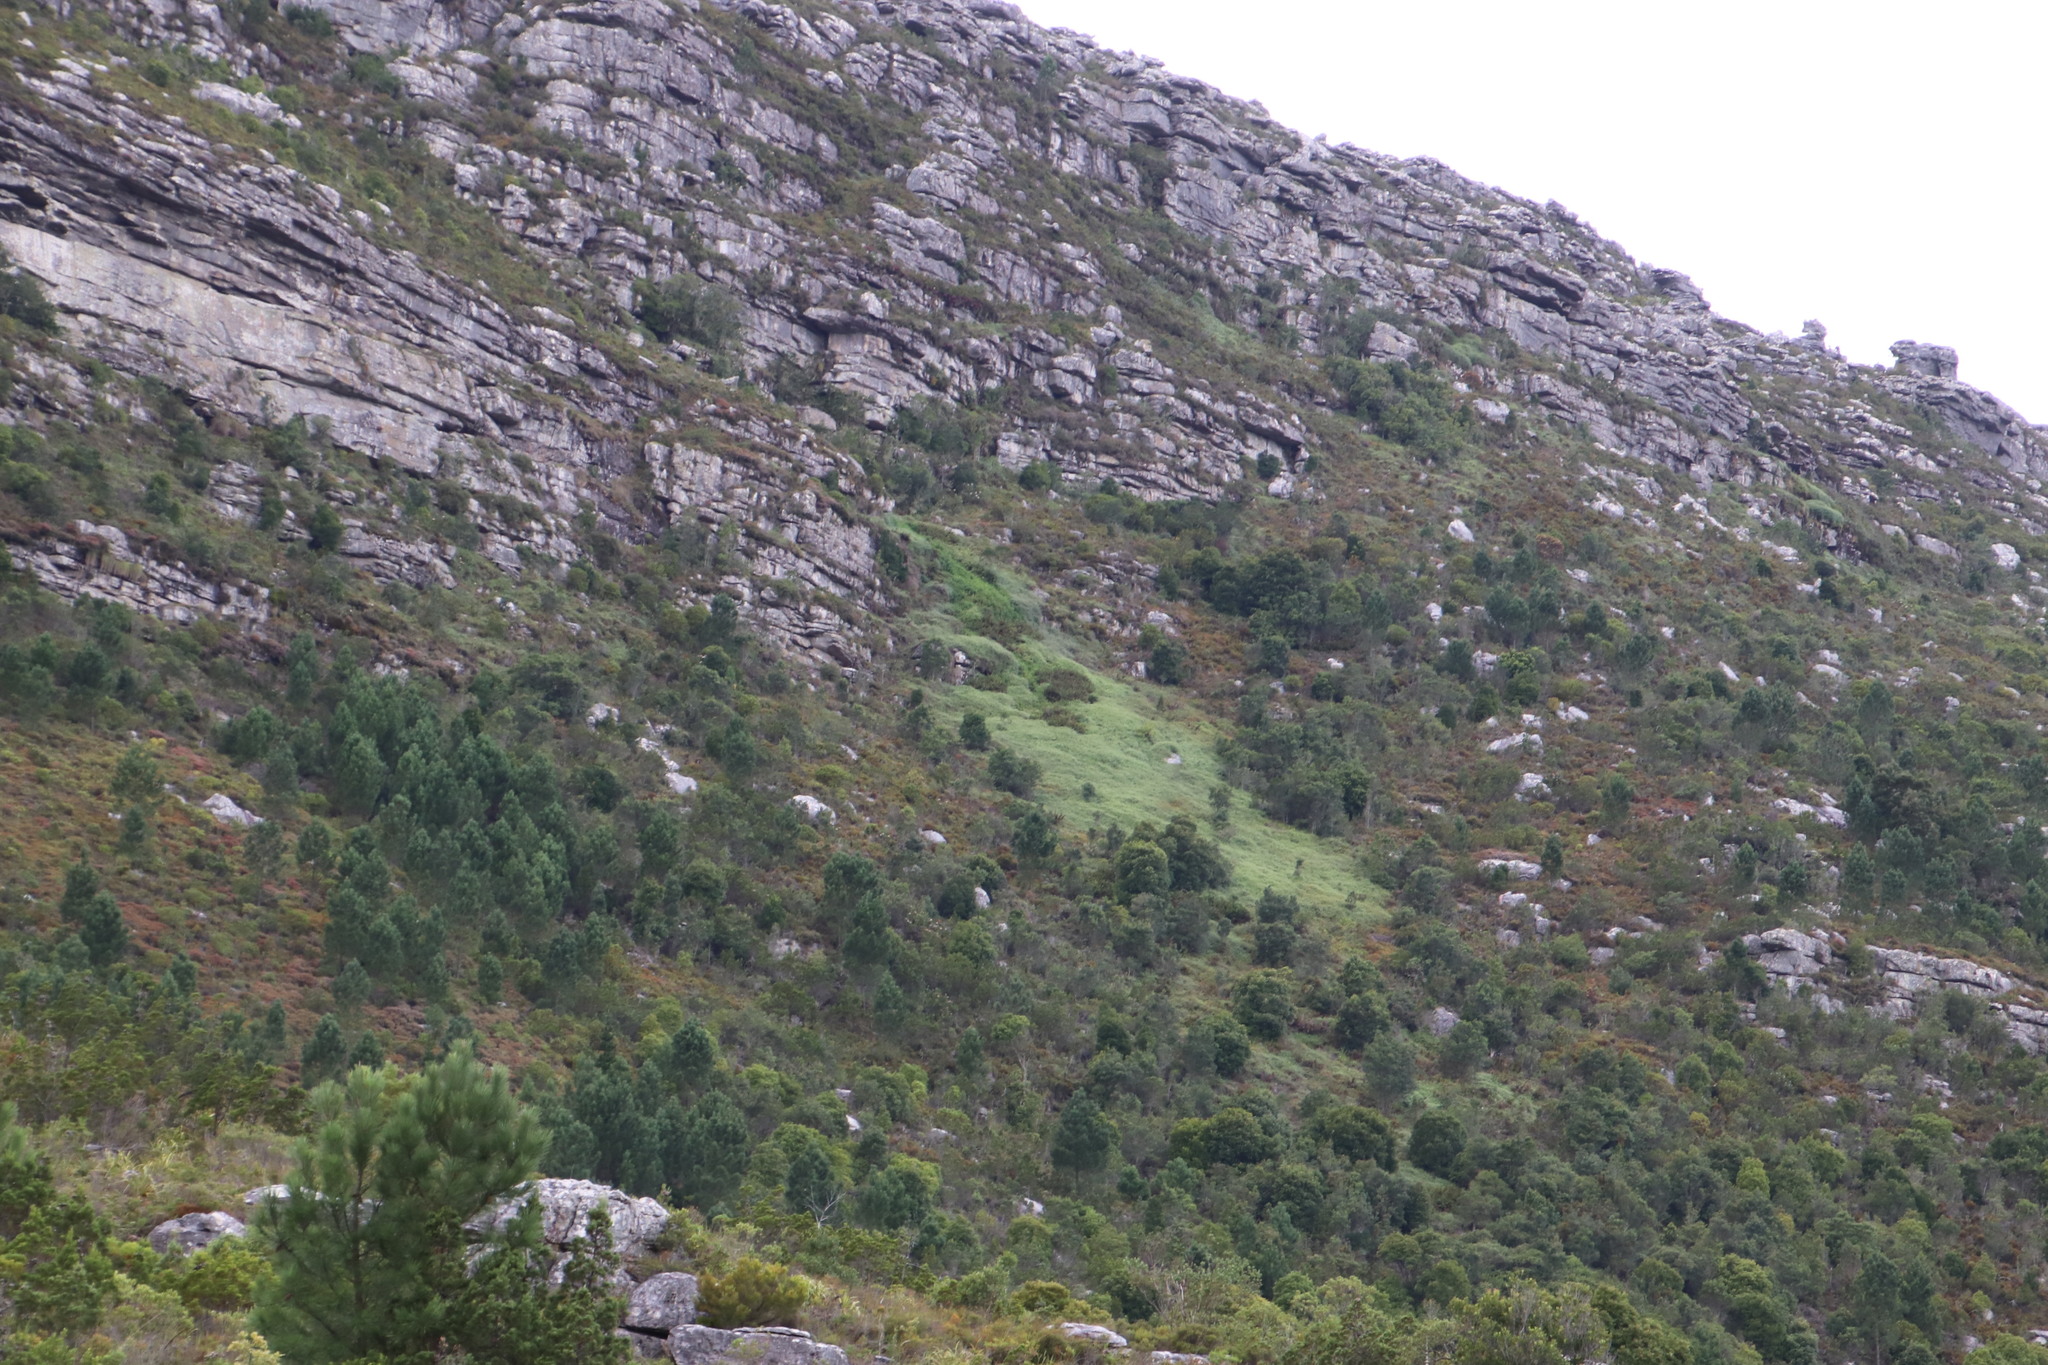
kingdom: Plantae
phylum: Tracheophyta
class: Polypodiopsida
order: Gleicheniales
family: Gleicheniaceae
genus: Gleichenia
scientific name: Gleichenia polypodioides
